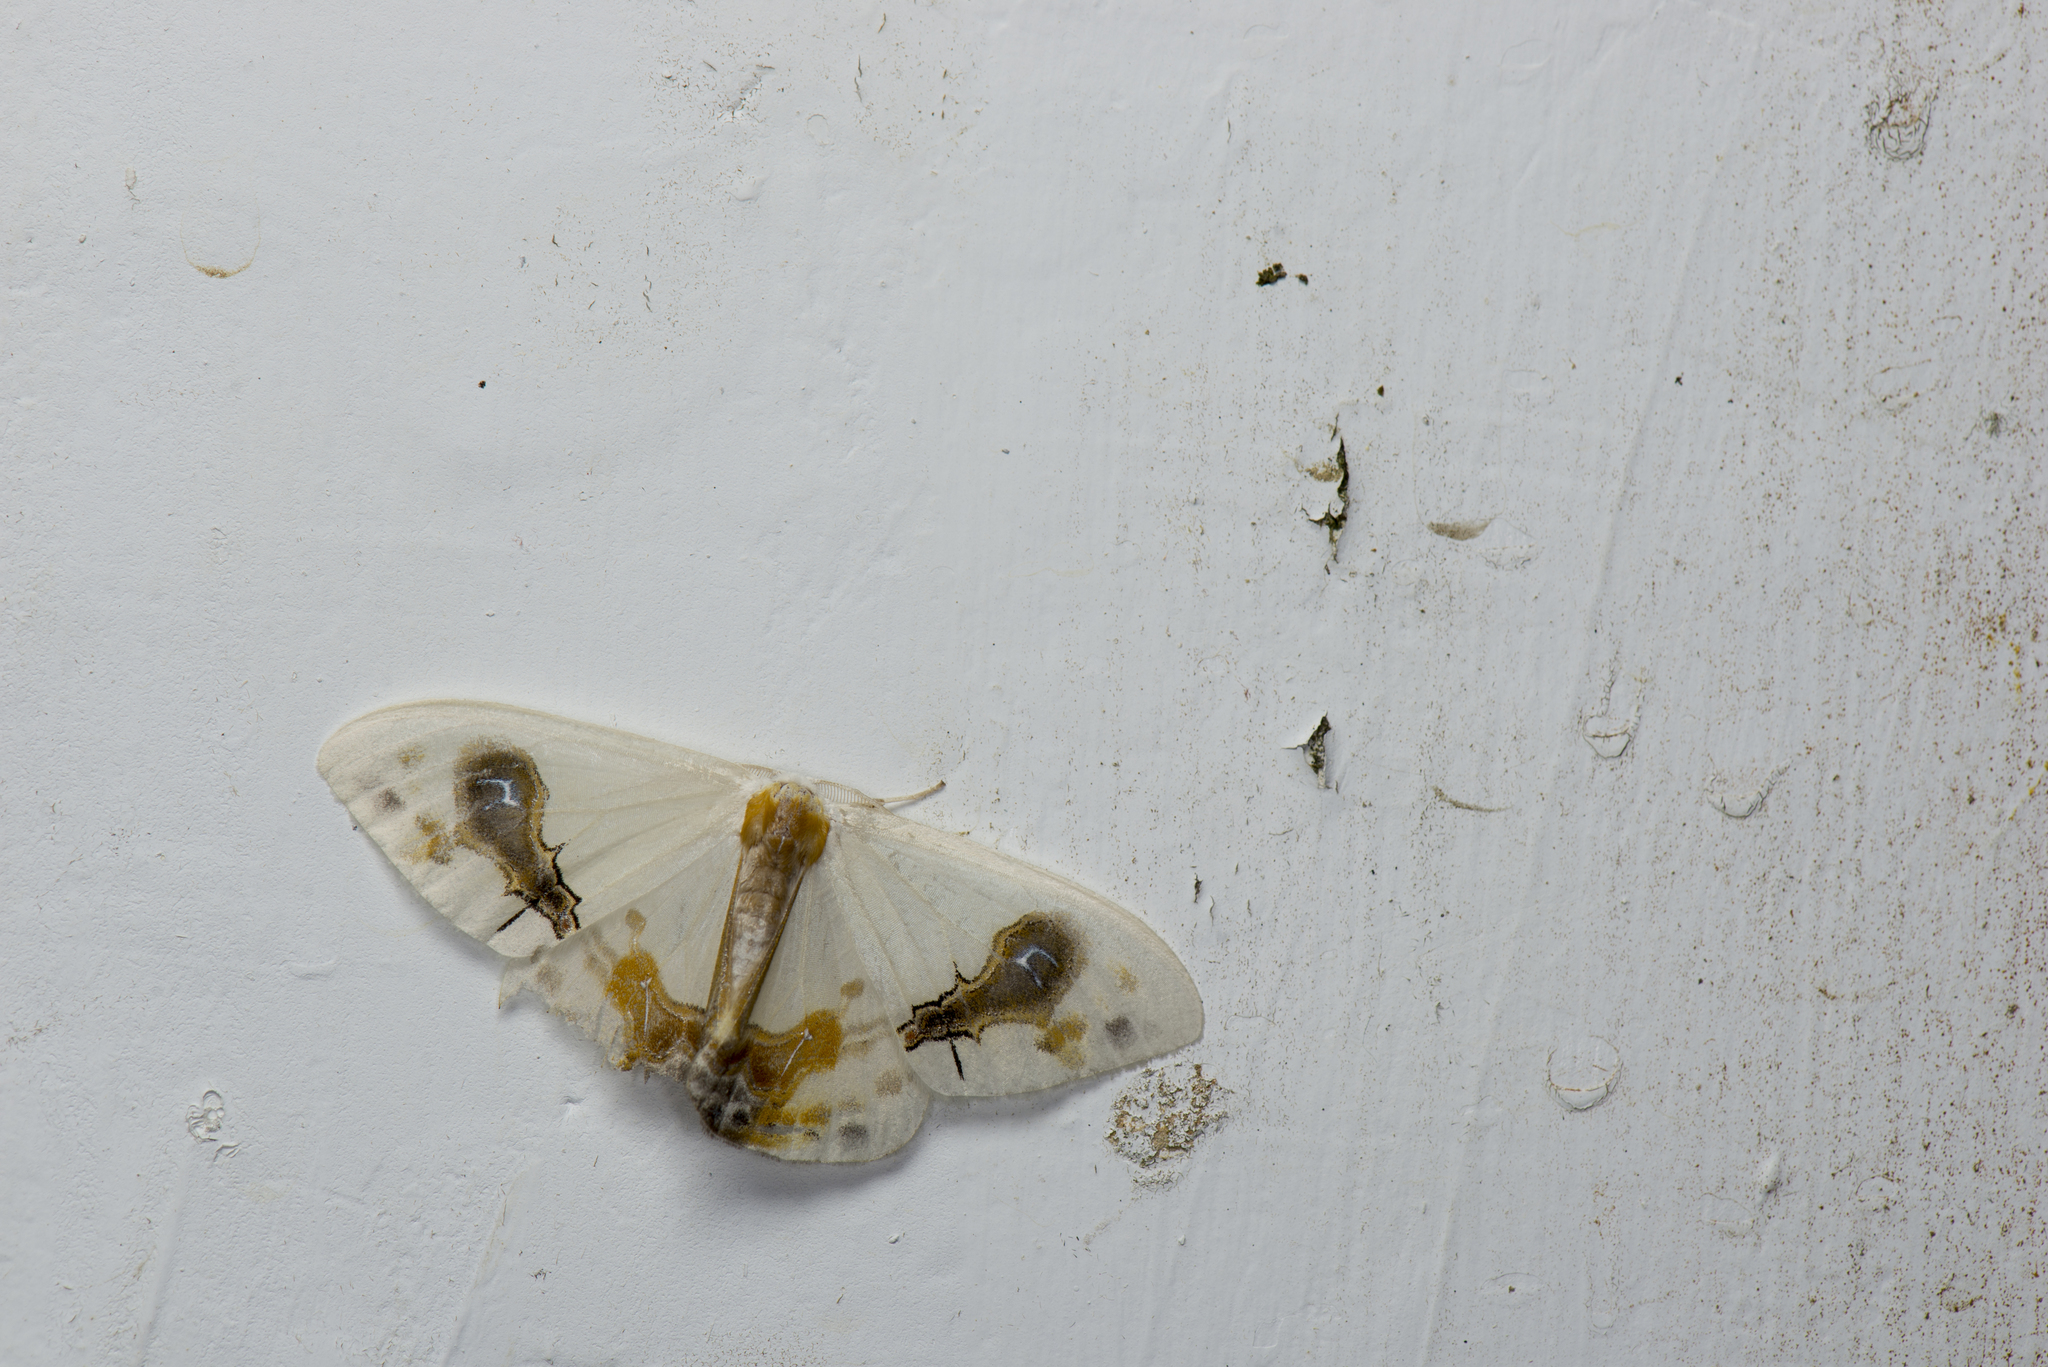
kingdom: Animalia
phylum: Arthropoda
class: Insecta
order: Lepidoptera
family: Drepanidae
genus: Macrocilix
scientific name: Macrocilix maia
